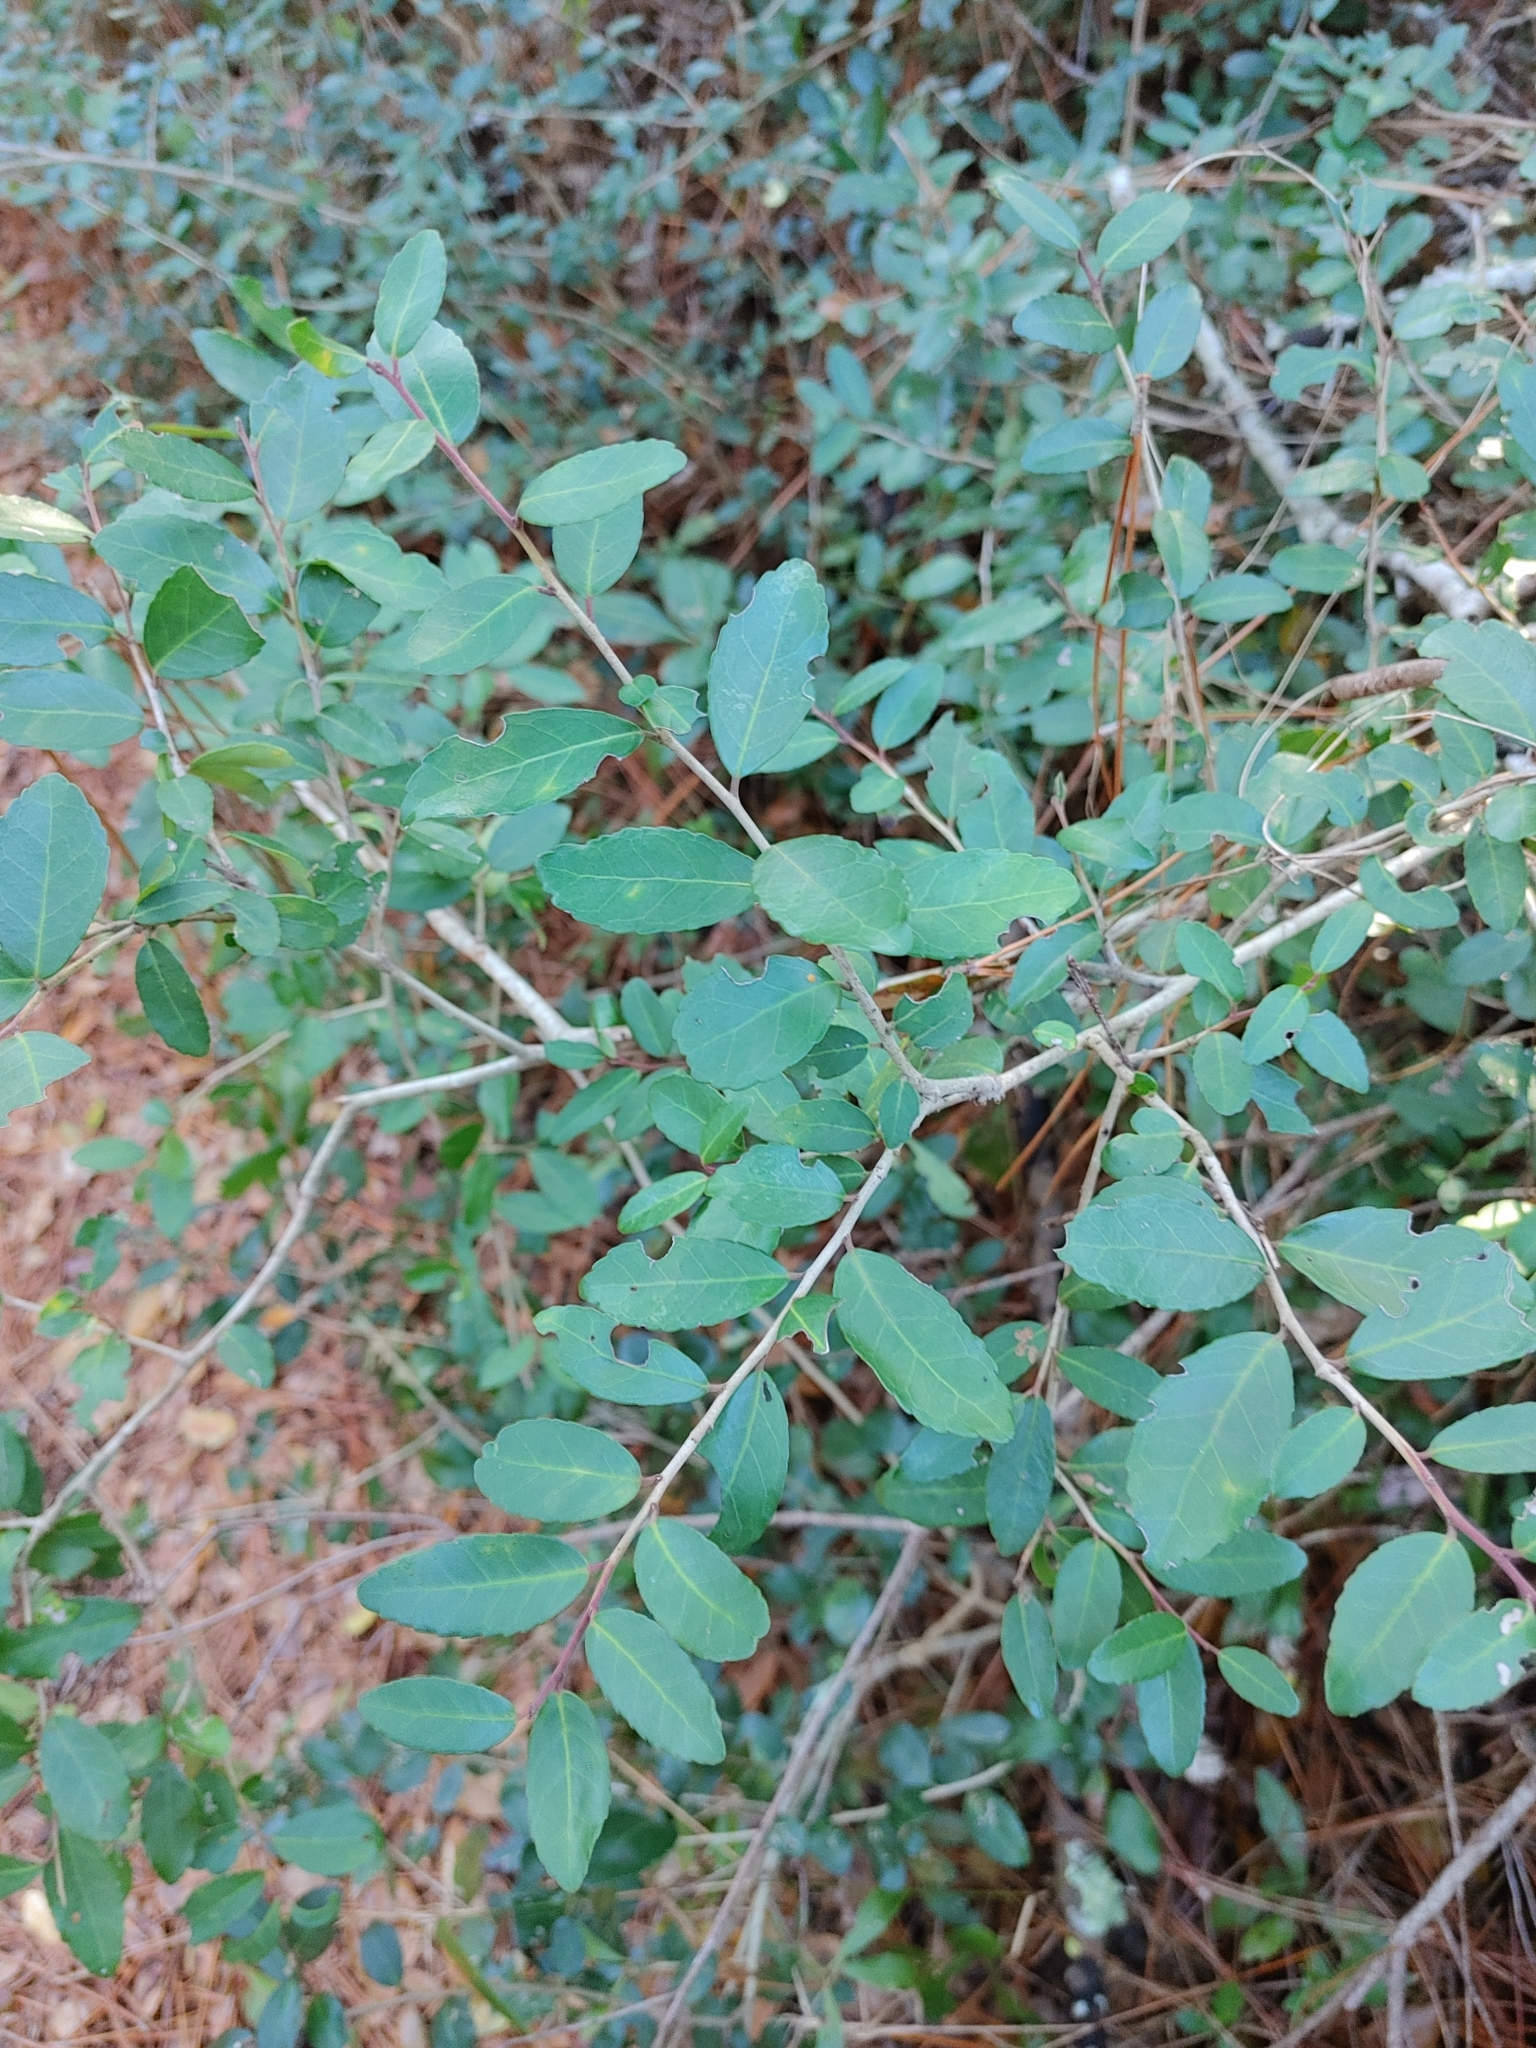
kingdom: Plantae
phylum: Tracheophyta
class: Magnoliopsida
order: Aquifoliales
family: Aquifoliaceae
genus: Ilex
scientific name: Ilex vomitoria
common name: Yaupon holly
